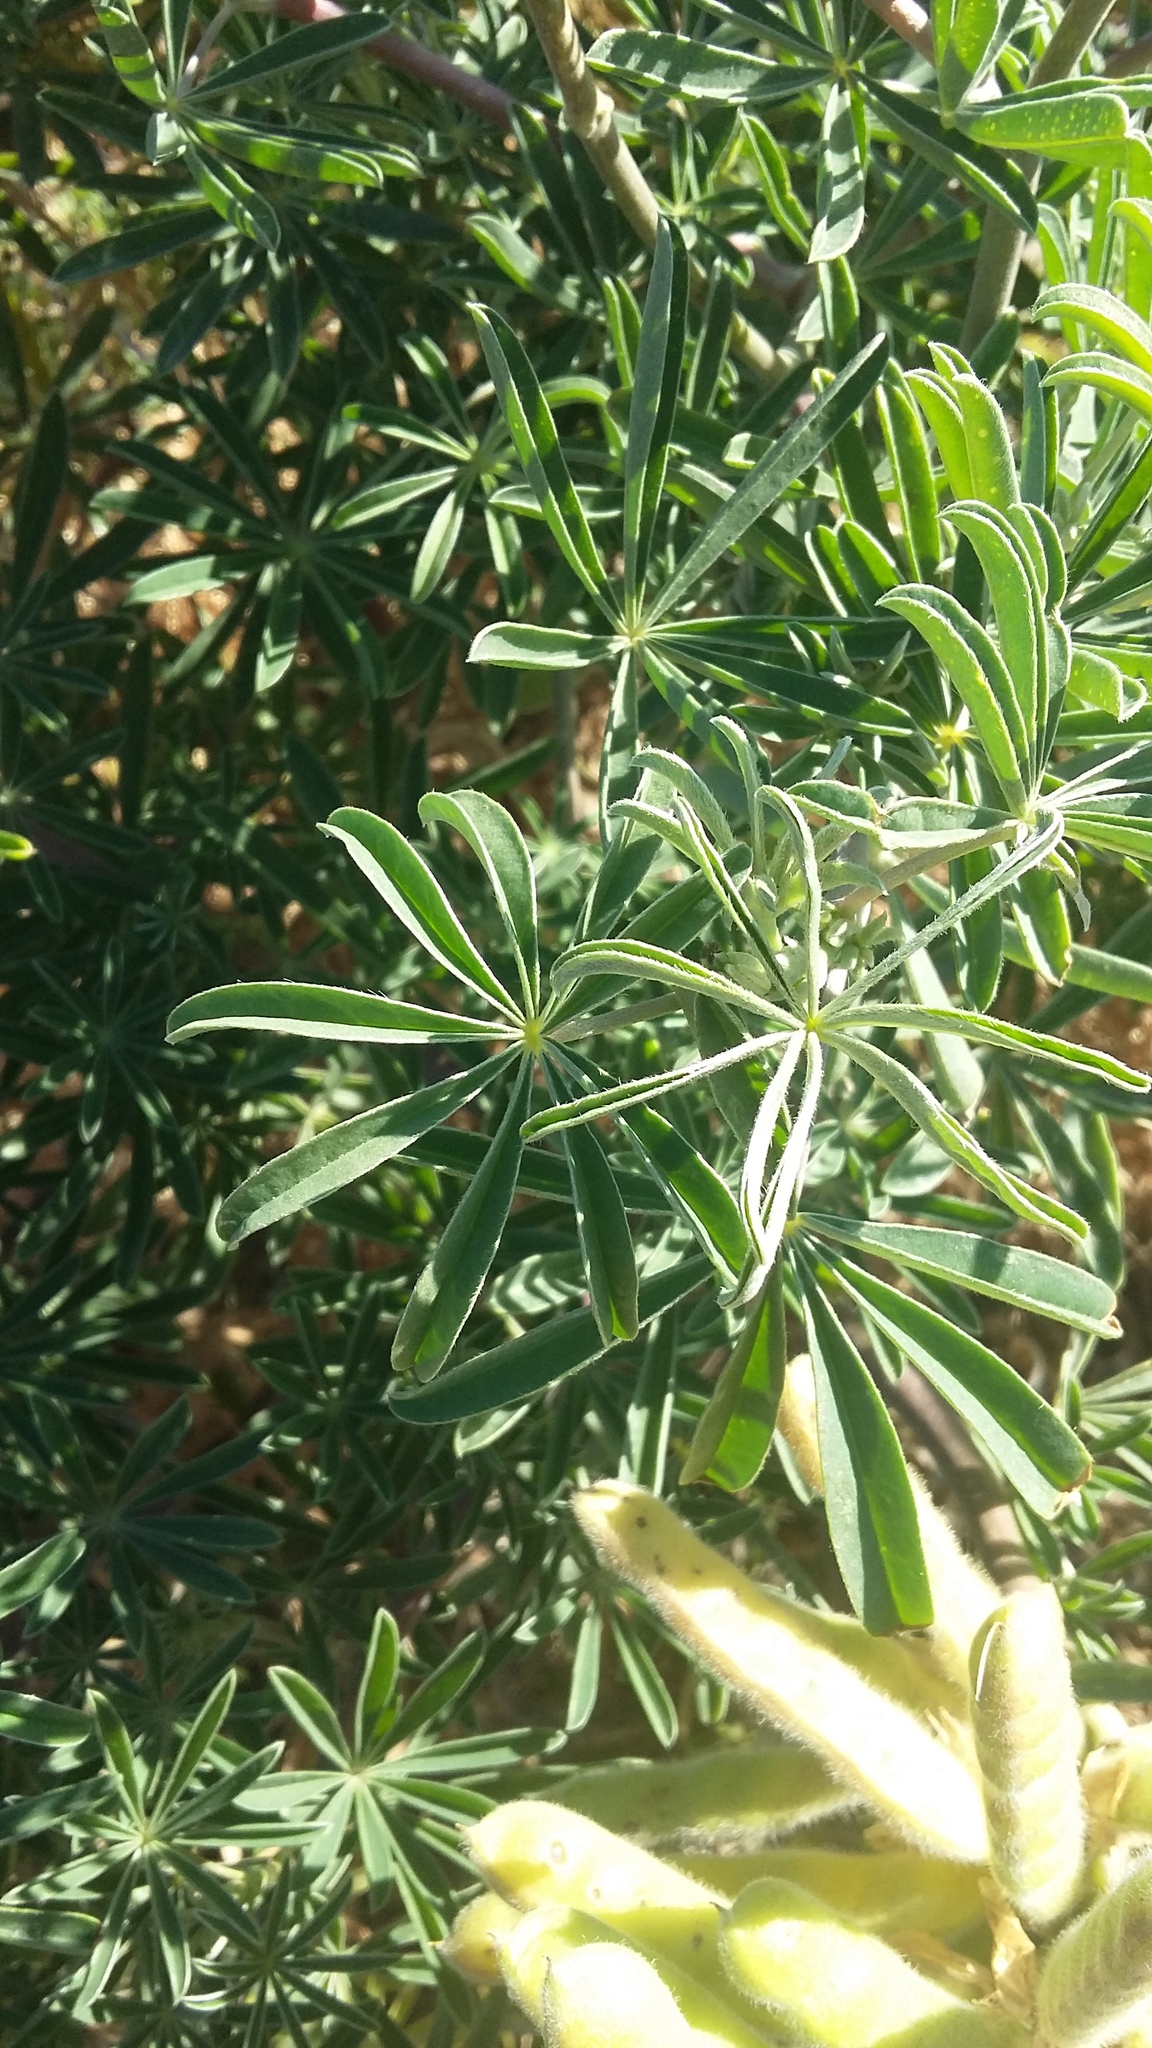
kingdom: Plantae
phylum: Tracheophyta
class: Magnoliopsida
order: Fabales
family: Fabaceae
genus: Lupinus
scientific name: Lupinus arboreus
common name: Yellow bush lupine
